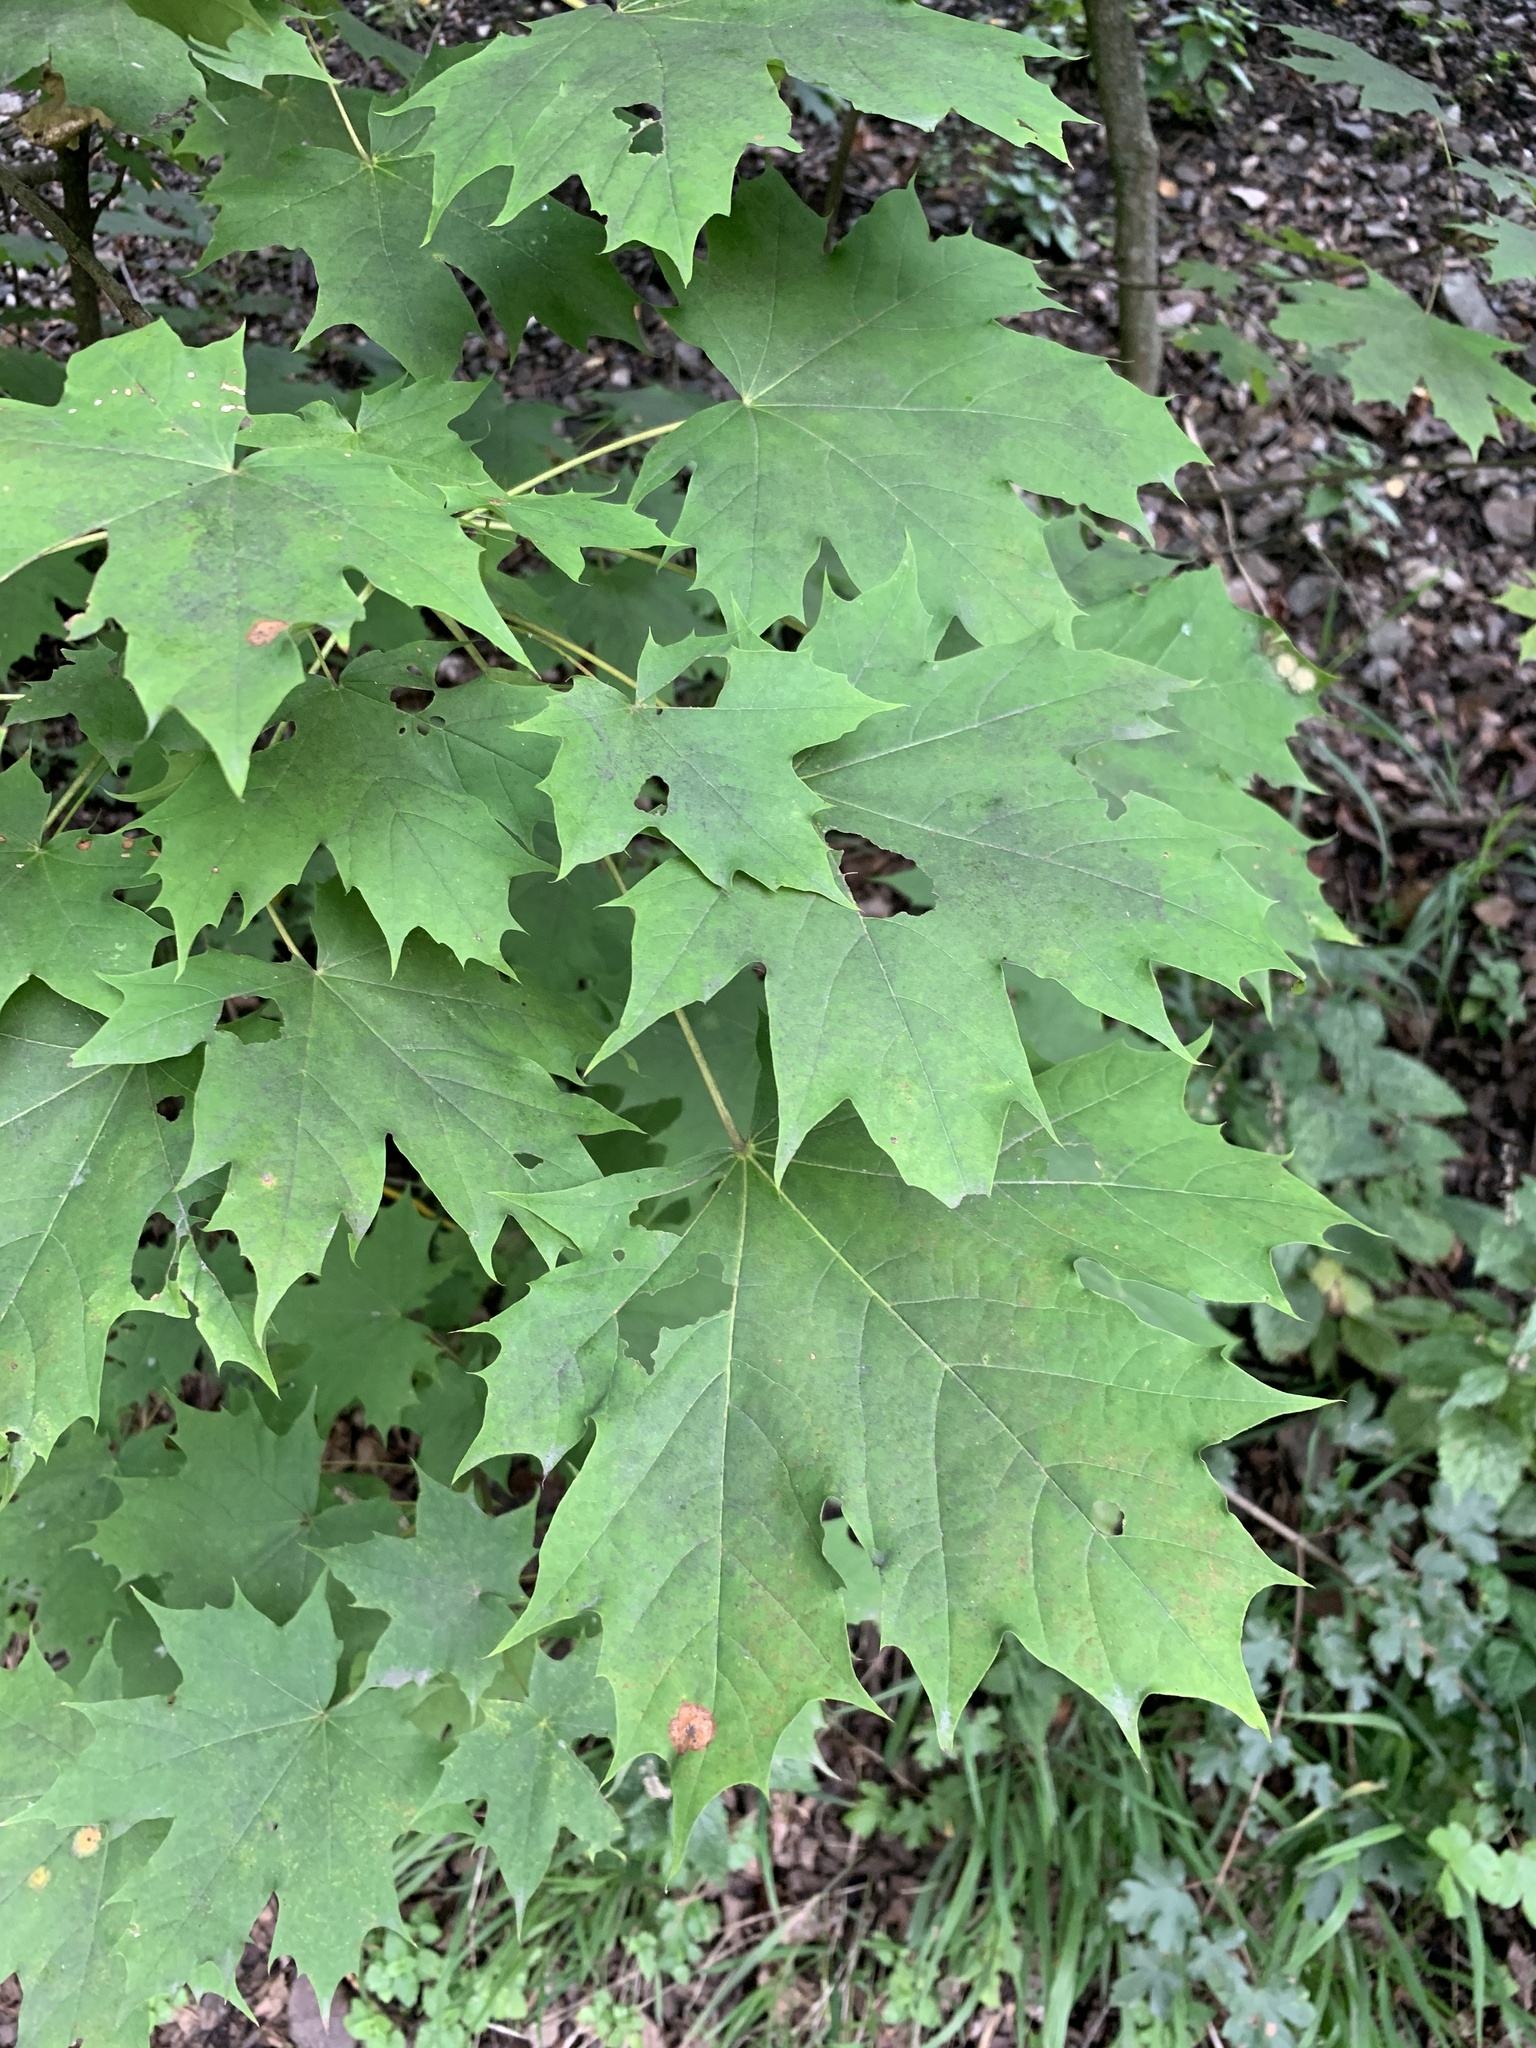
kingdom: Plantae
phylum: Tracheophyta
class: Magnoliopsida
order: Sapindales
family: Sapindaceae
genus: Acer
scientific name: Acer platanoides
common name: Norway maple
